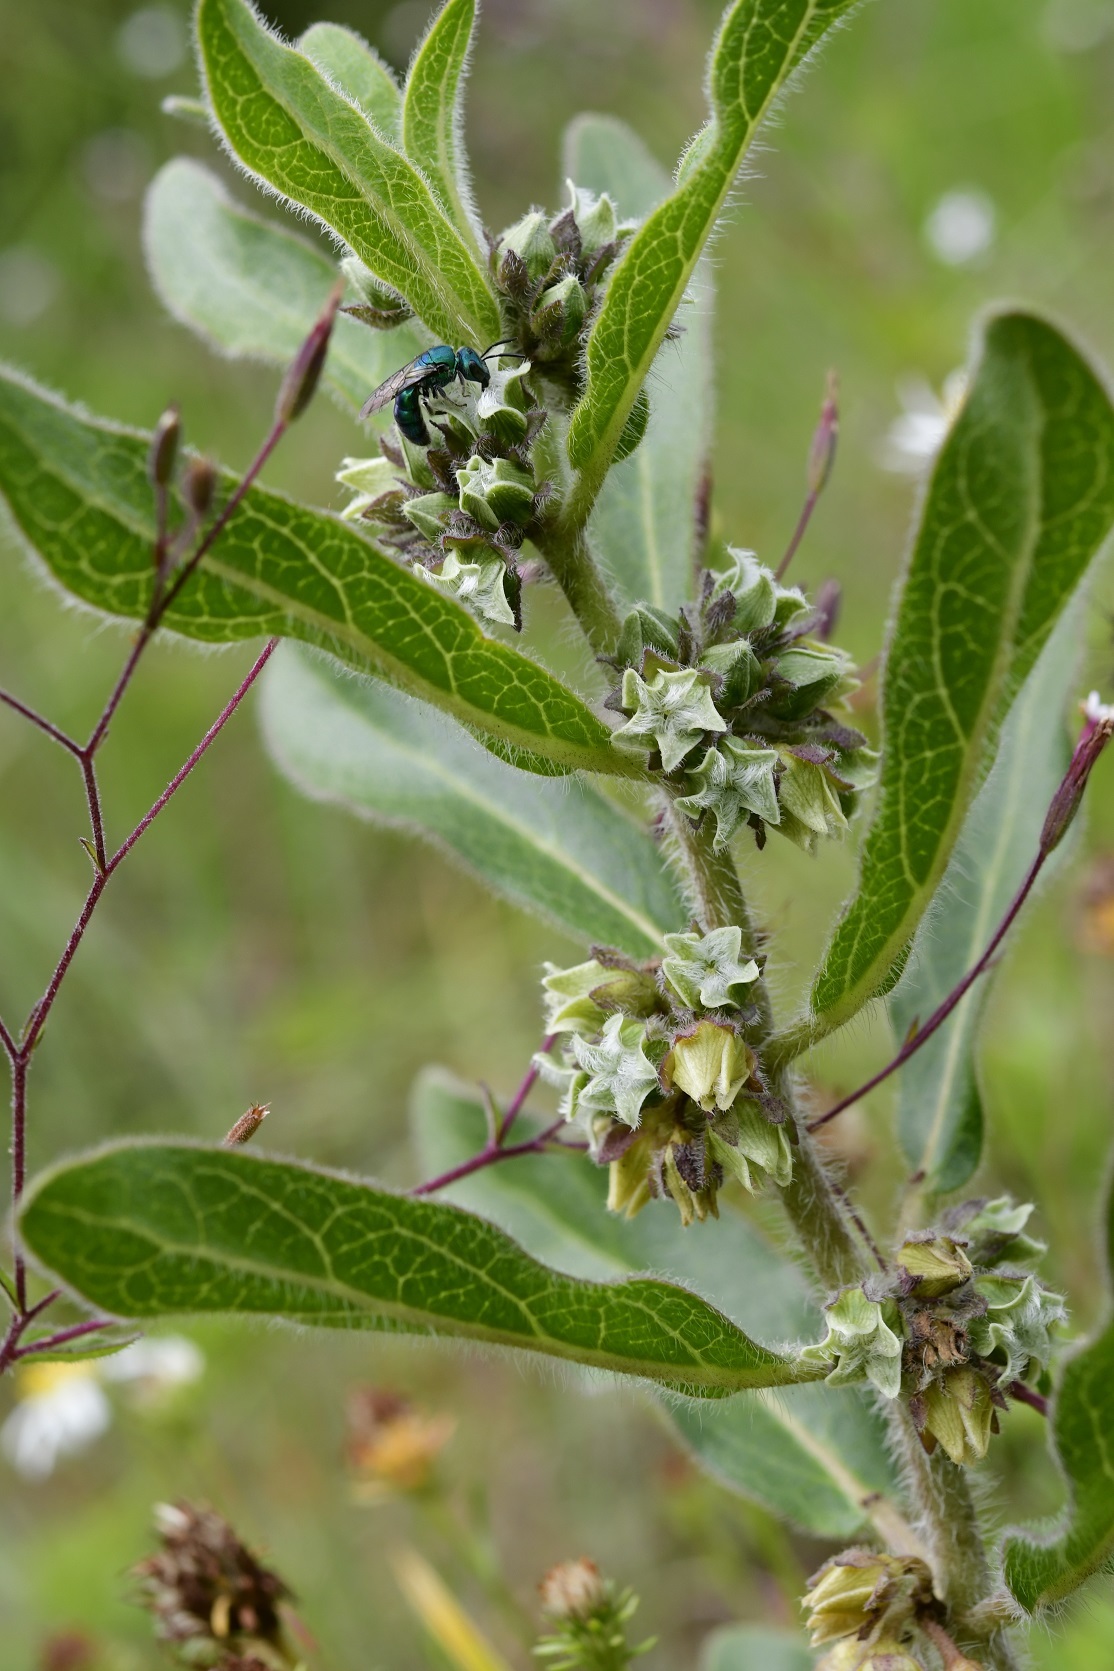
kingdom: Plantae
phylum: Tracheophyta
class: Magnoliopsida
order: Gentianales
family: Apocynaceae
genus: Pherotrichis
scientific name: Pherotrichis villosa
